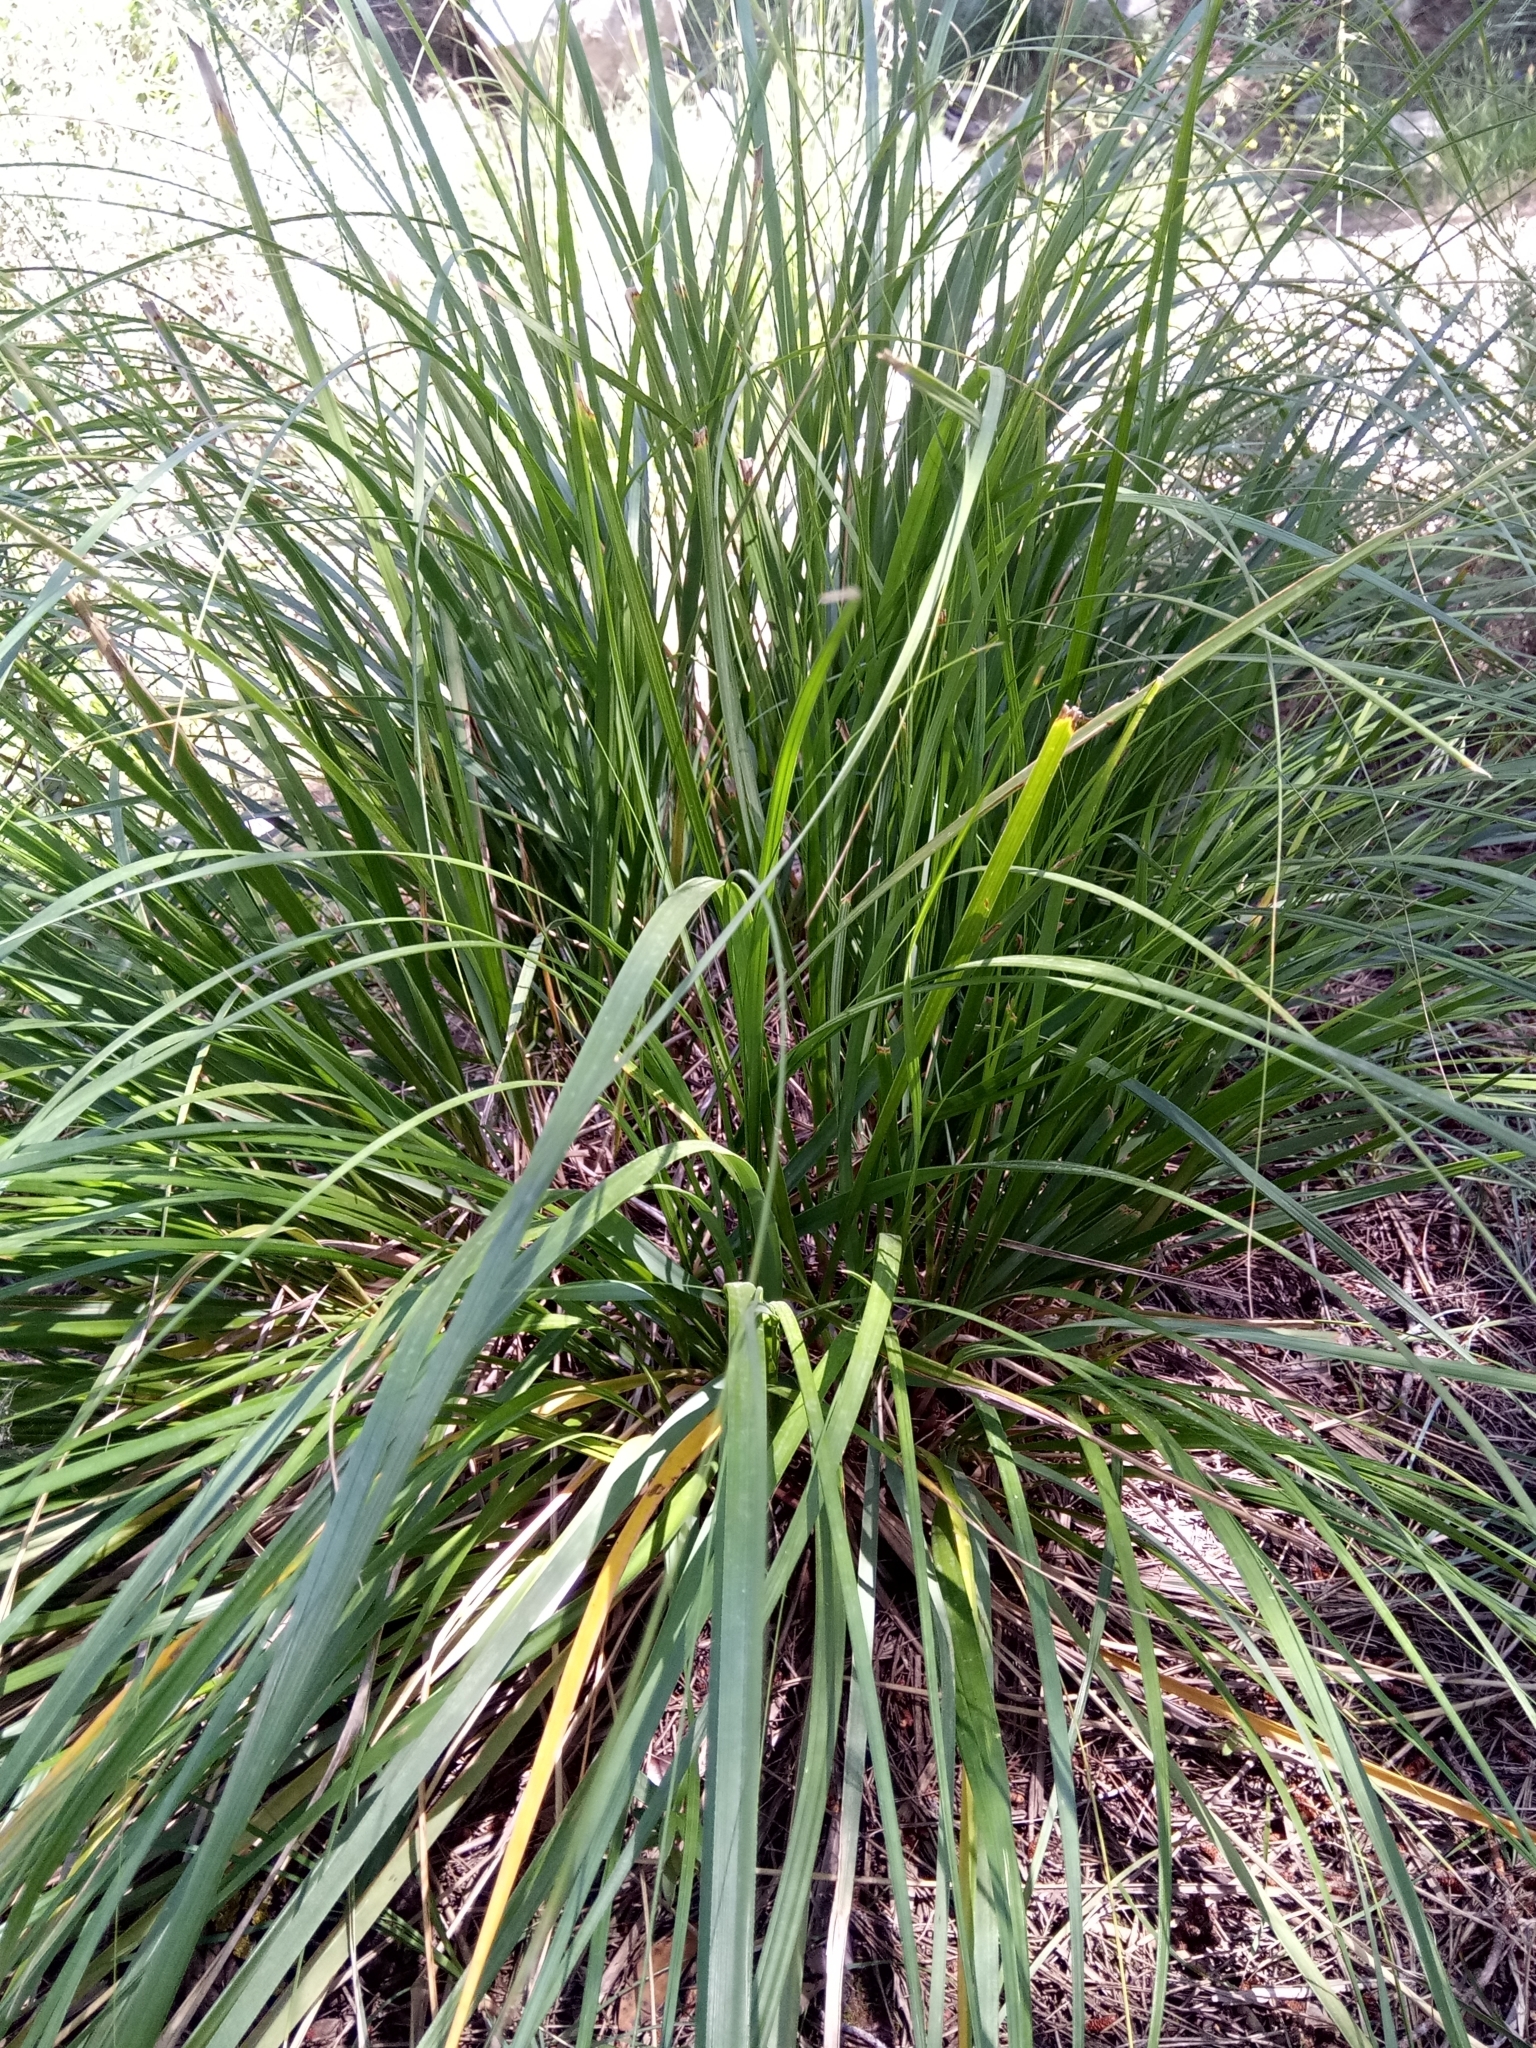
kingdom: Plantae
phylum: Tracheophyta
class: Liliopsida
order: Poales
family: Poaceae
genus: Ampelodesmos
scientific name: Ampelodesmos mauritanicus
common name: Mauritanian grass
